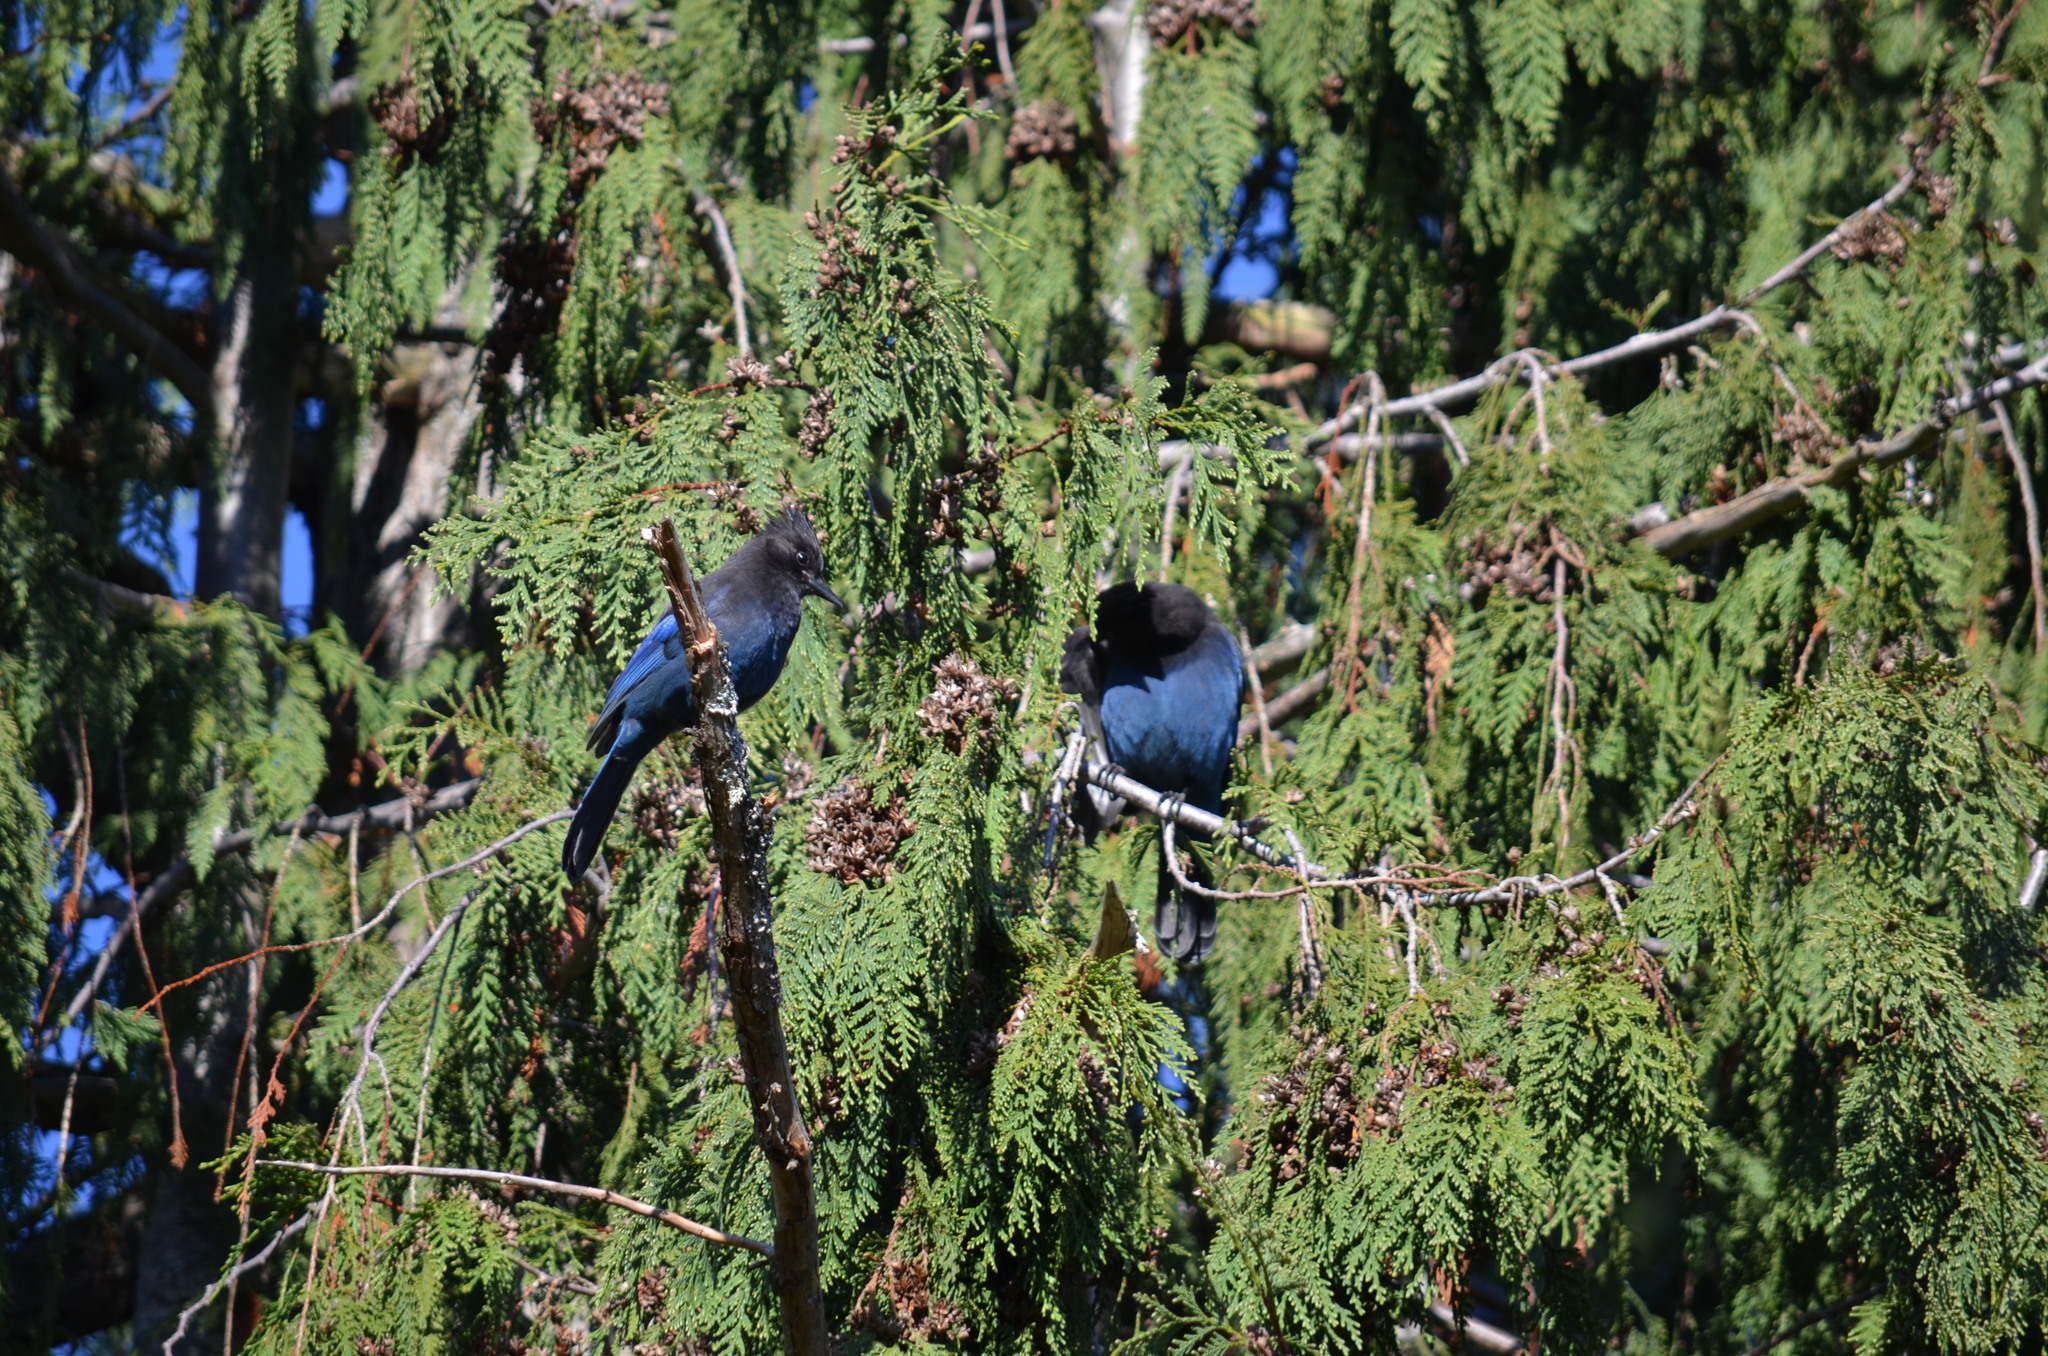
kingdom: Animalia
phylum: Chordata
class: Aves
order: Passeriformes
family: Corvidae
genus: Cyanocitta
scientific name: Cyanocitta stelleri
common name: Steller's jay
